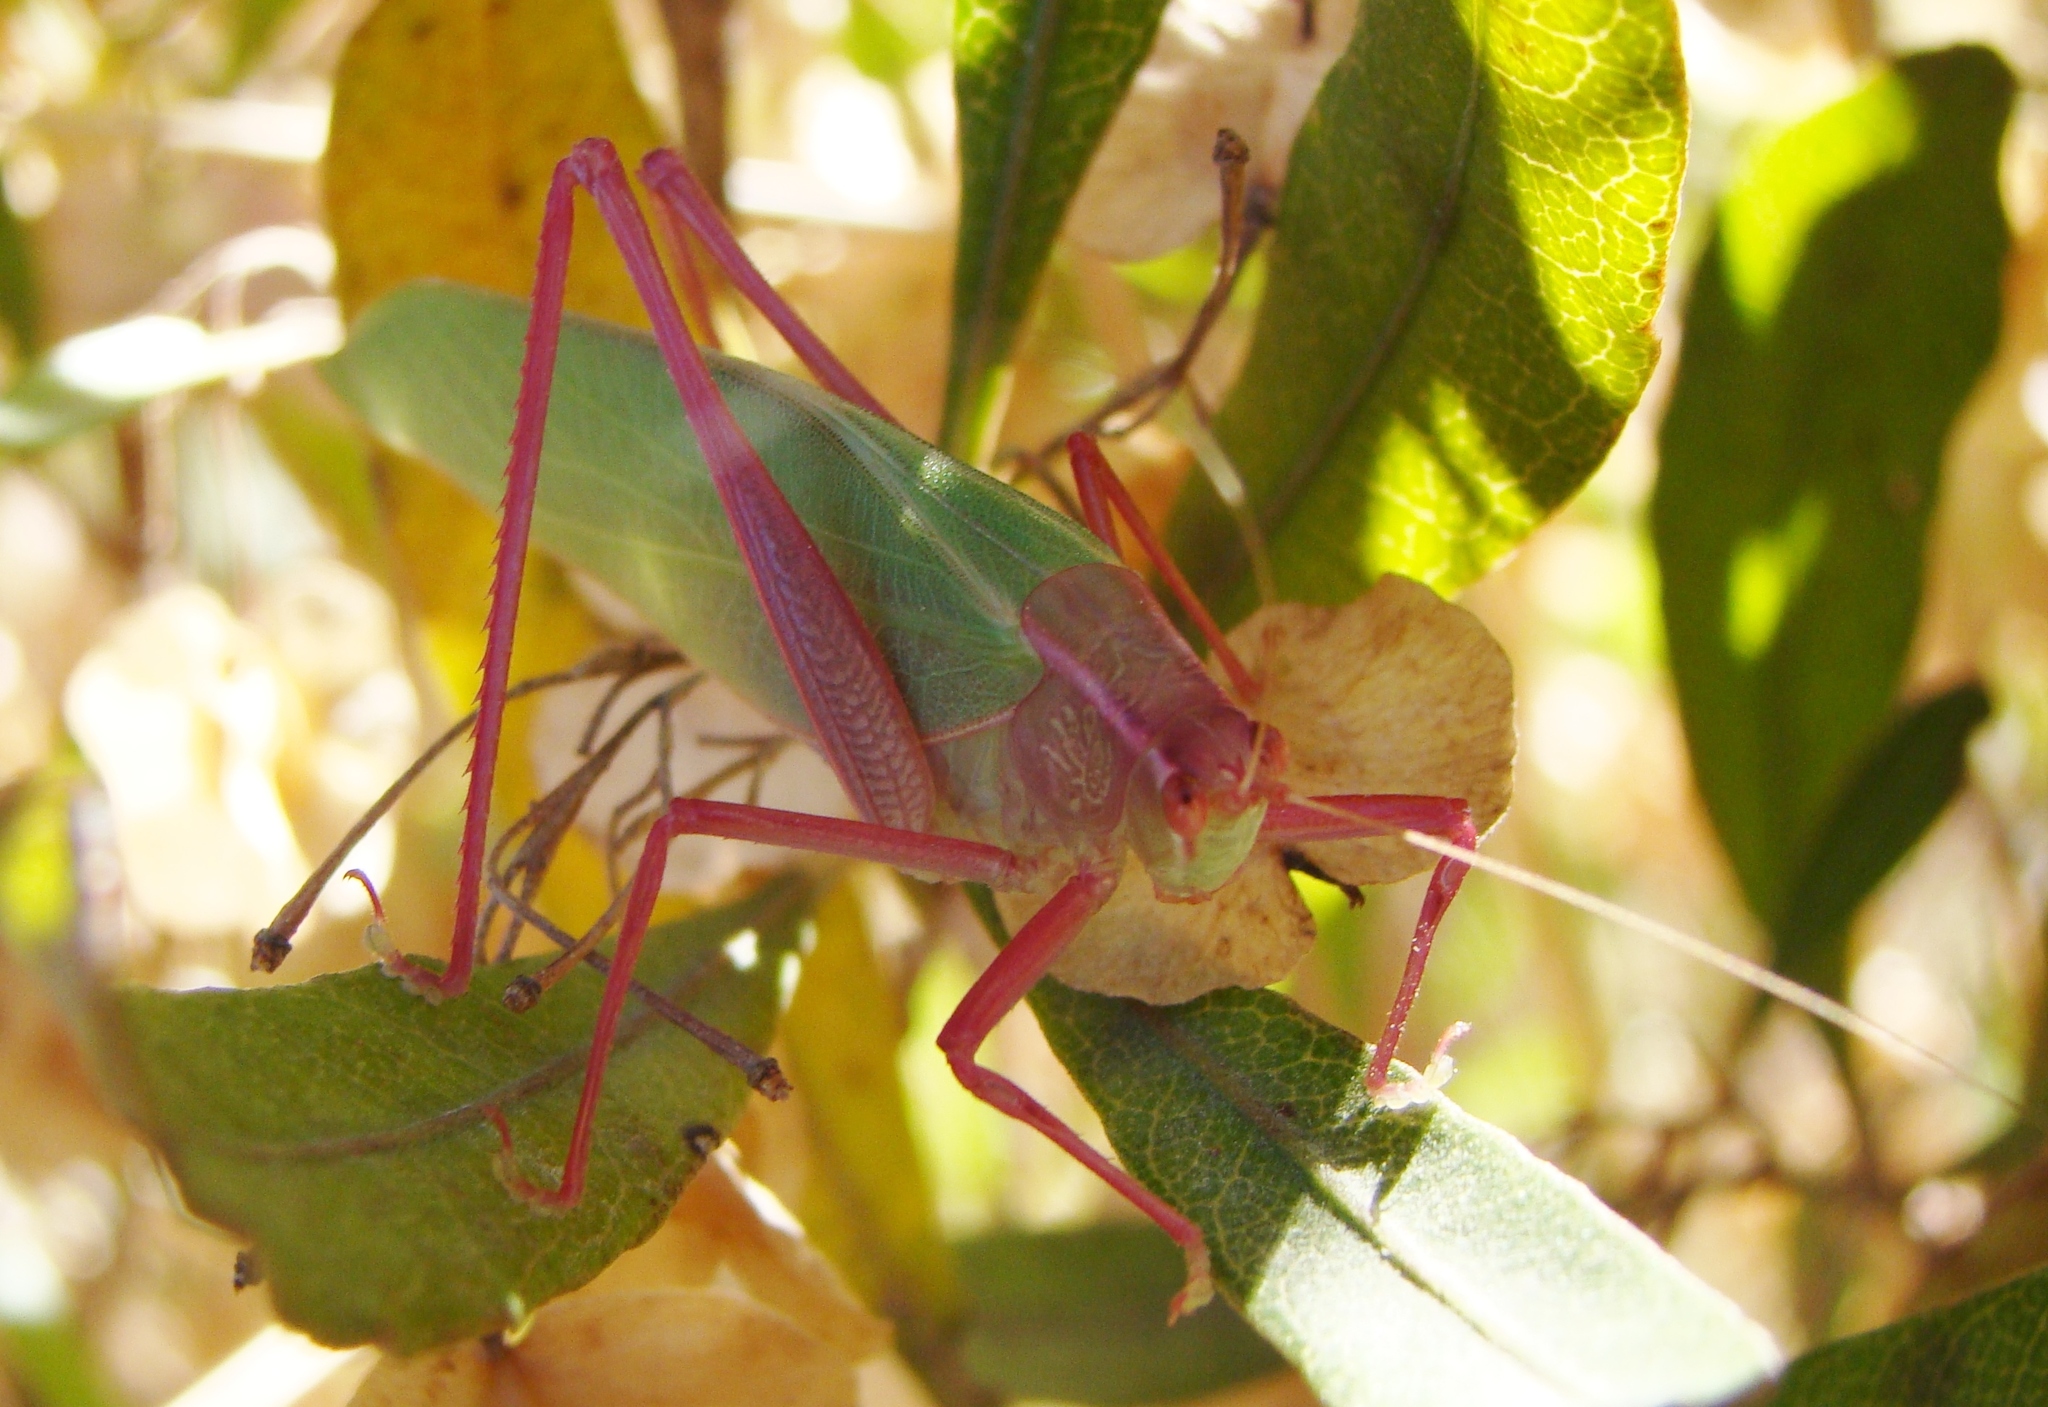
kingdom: Animalia
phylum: Arthropoda
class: Insecta
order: Orthoptera
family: Tettigoniidae
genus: Caedicia
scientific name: Caedicia simplex
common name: Common garden katydid
